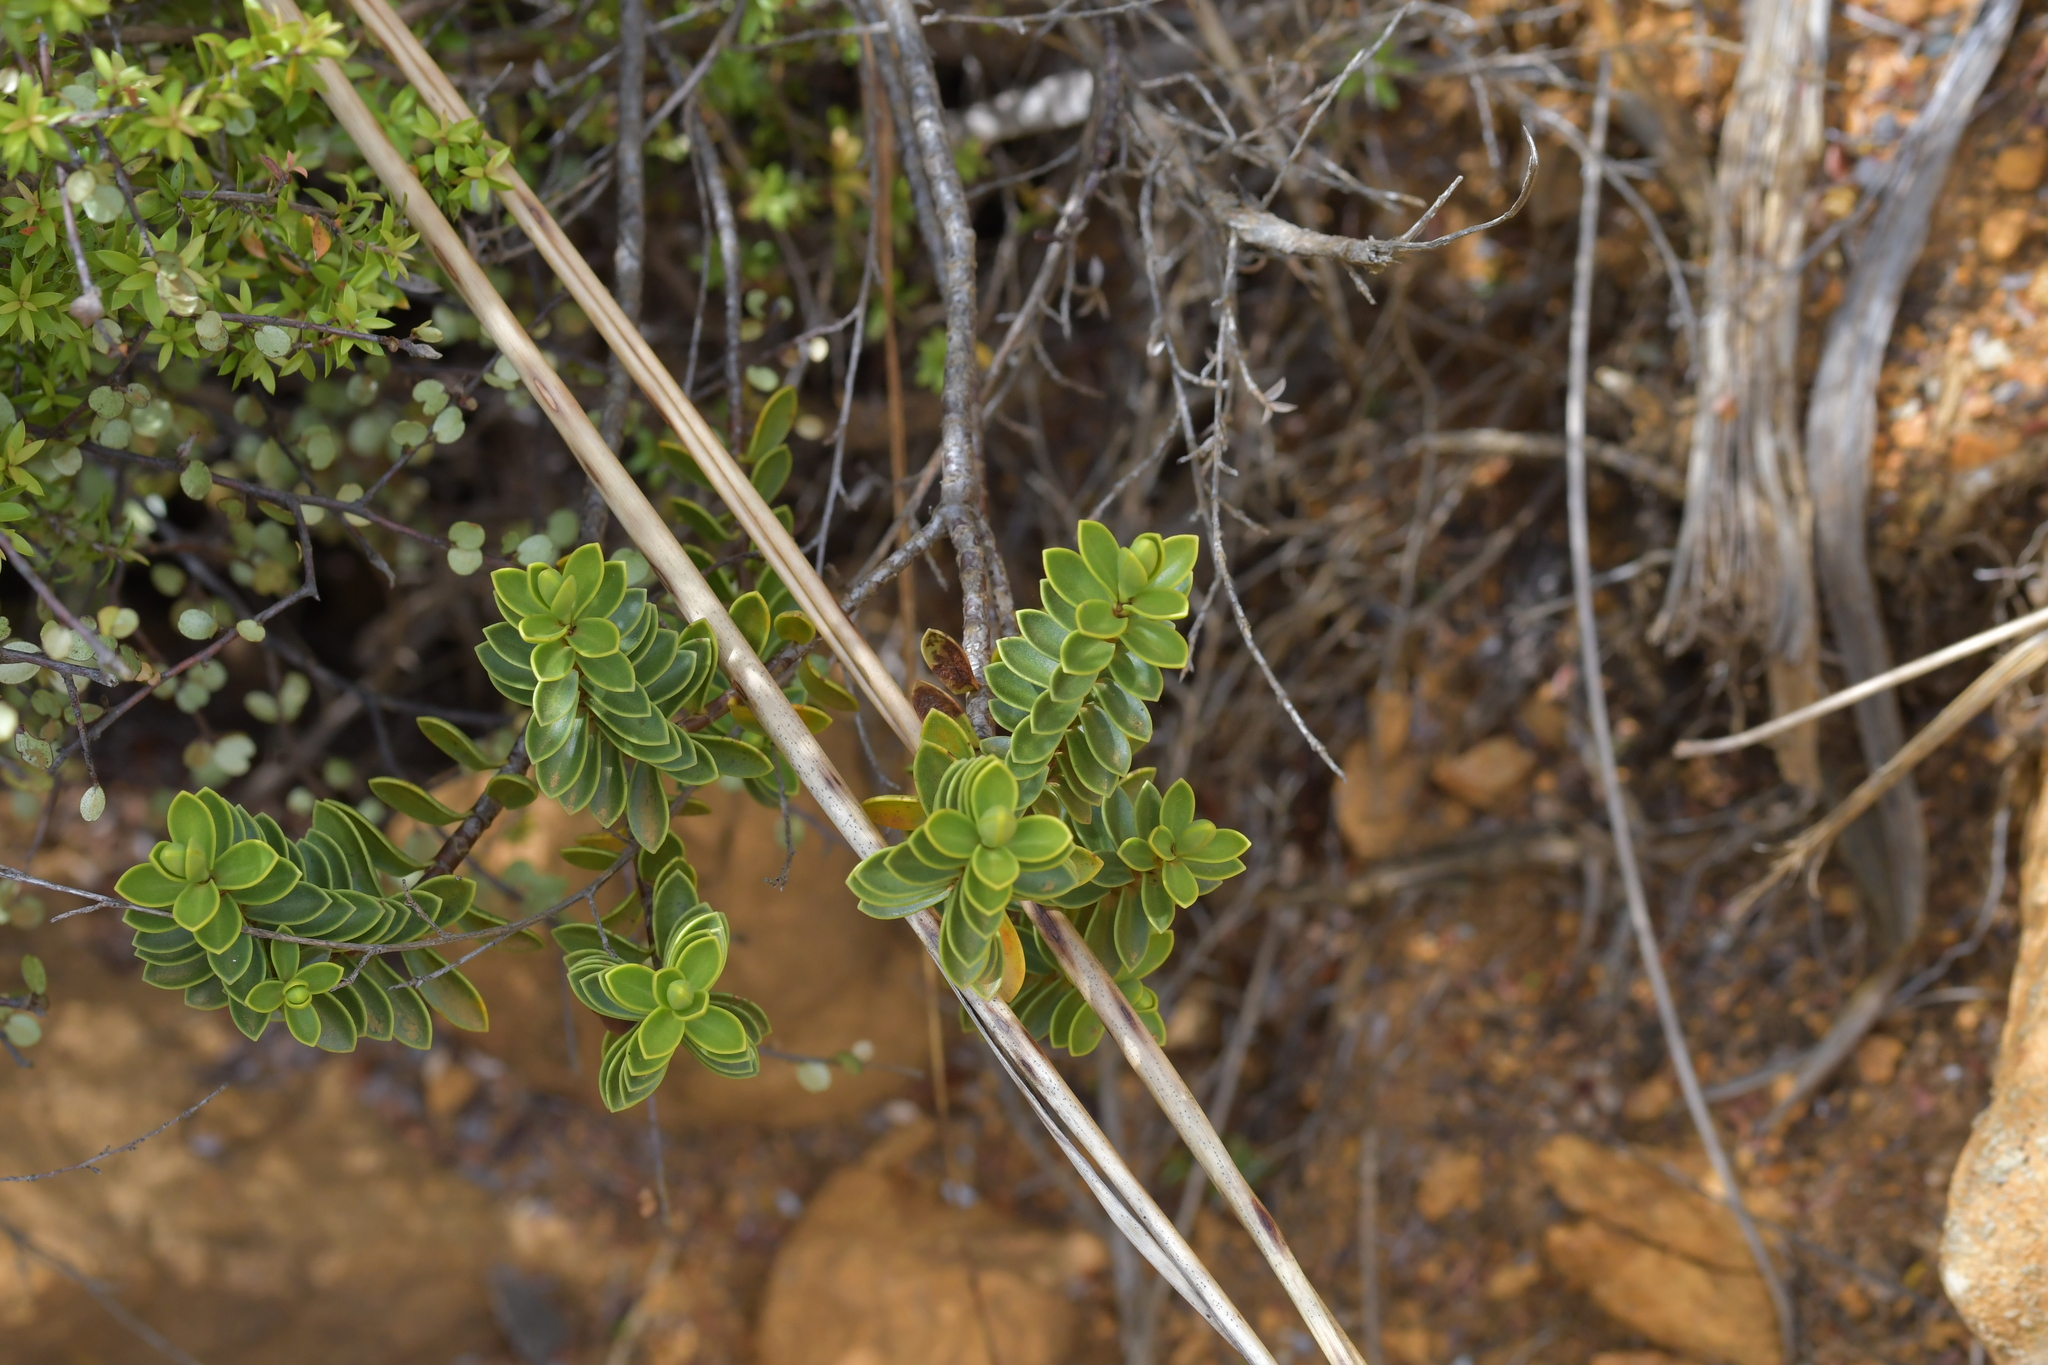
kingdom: Plantae
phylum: Tracheophyta
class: Magnoliopsida
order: Lamiales
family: Plantaginaceae
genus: Veronica
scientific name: Veronica vernicosa
